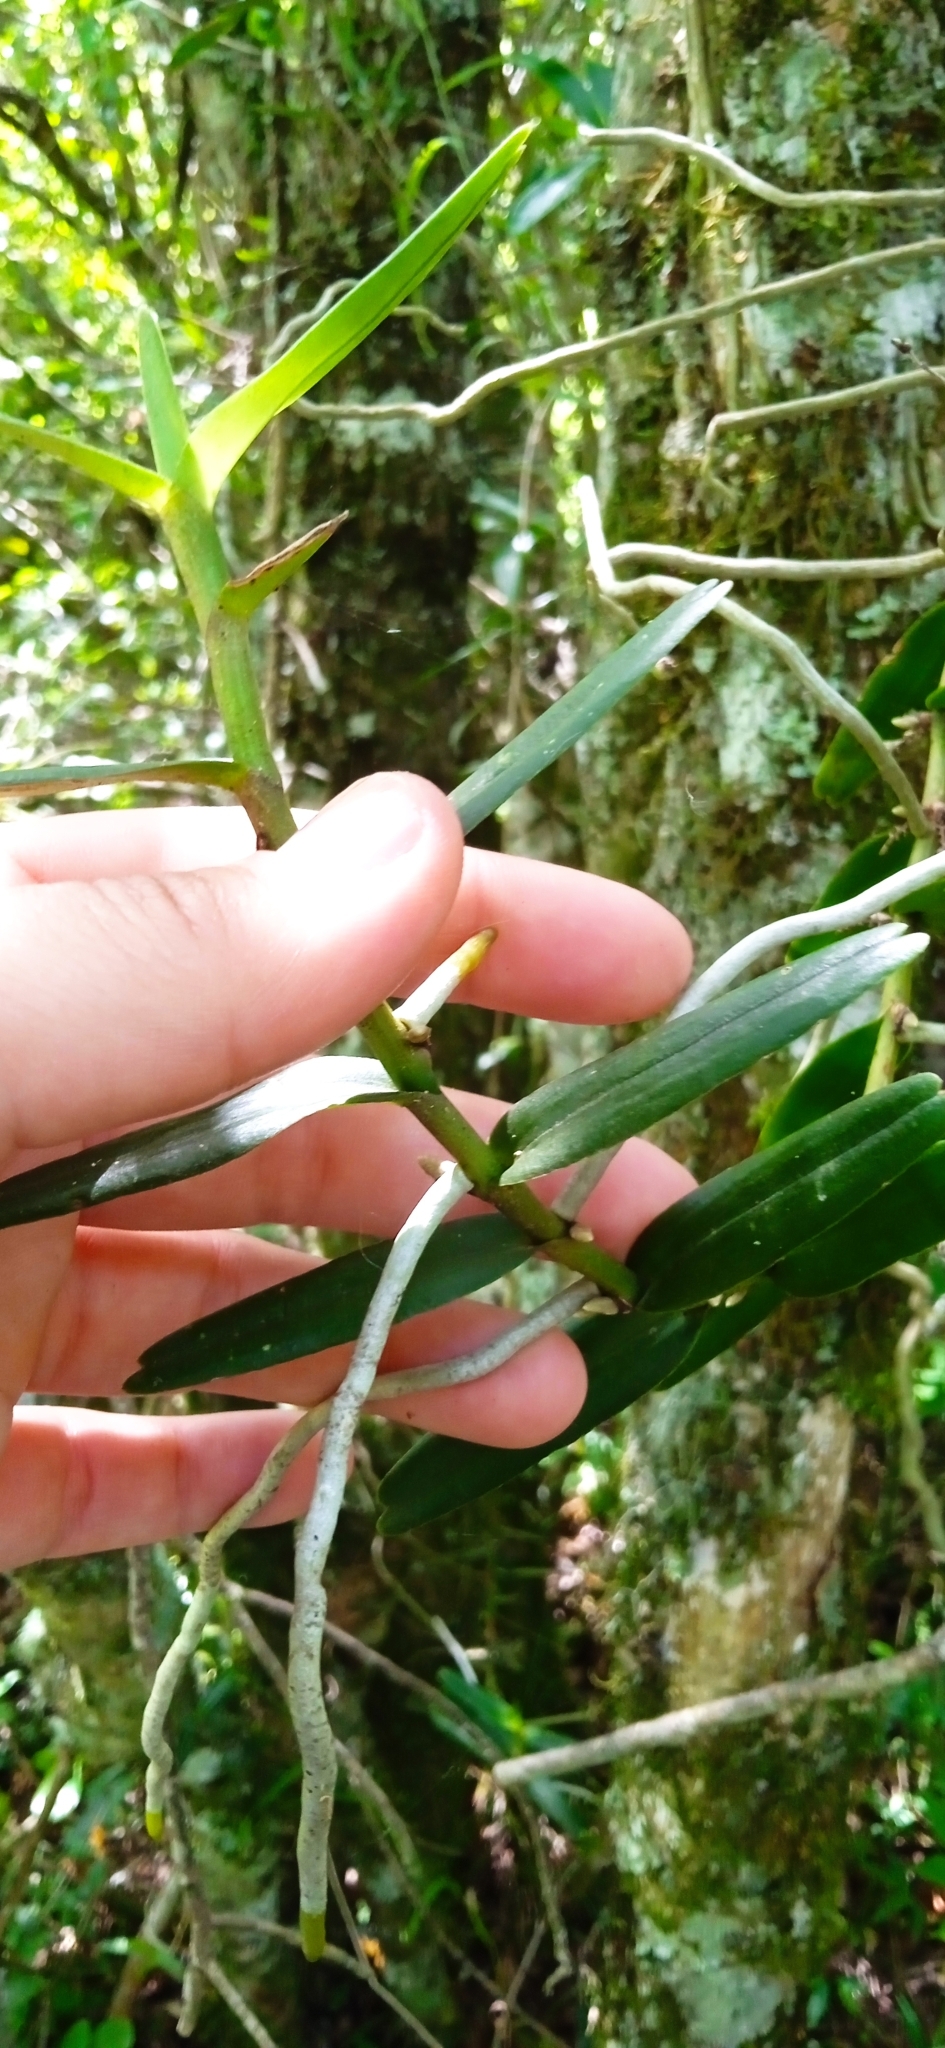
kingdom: Plantae
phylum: Tracheophyta
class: Liliopsida
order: Asparagales
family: Orchidaceae
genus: Campylocentrum
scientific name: Campylocentrum densiflorum
